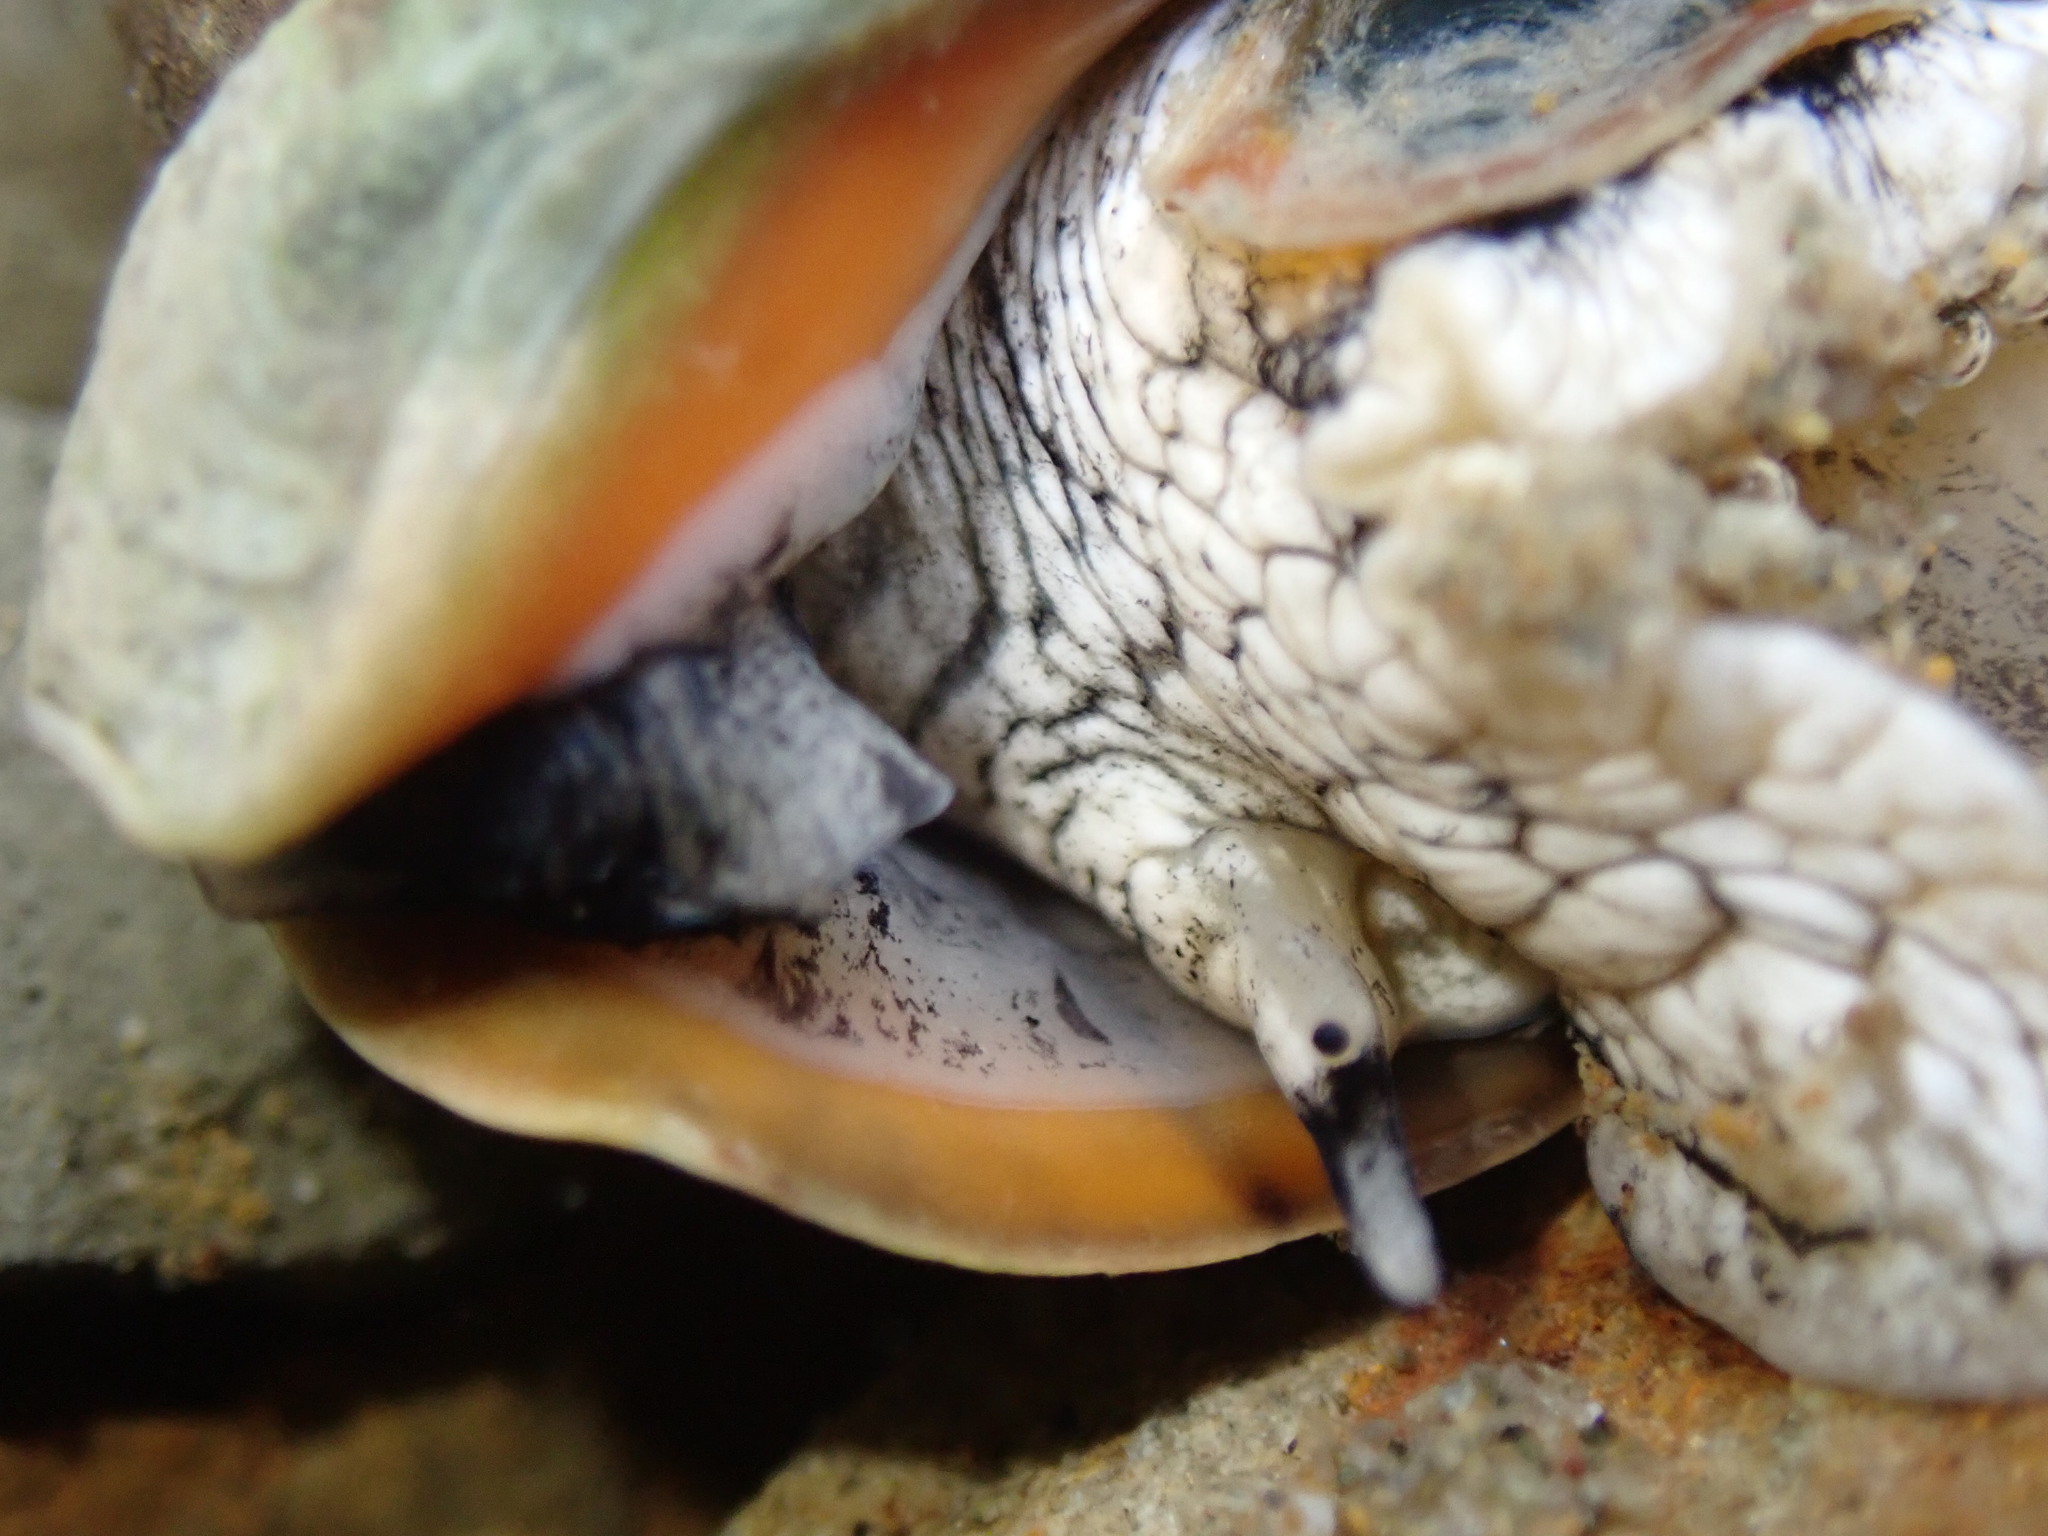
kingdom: Animalia
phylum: Mollusca
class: Gastropoda
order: Neogastropoda
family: Cominellidae
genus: Cominella
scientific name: Cominella virgata
